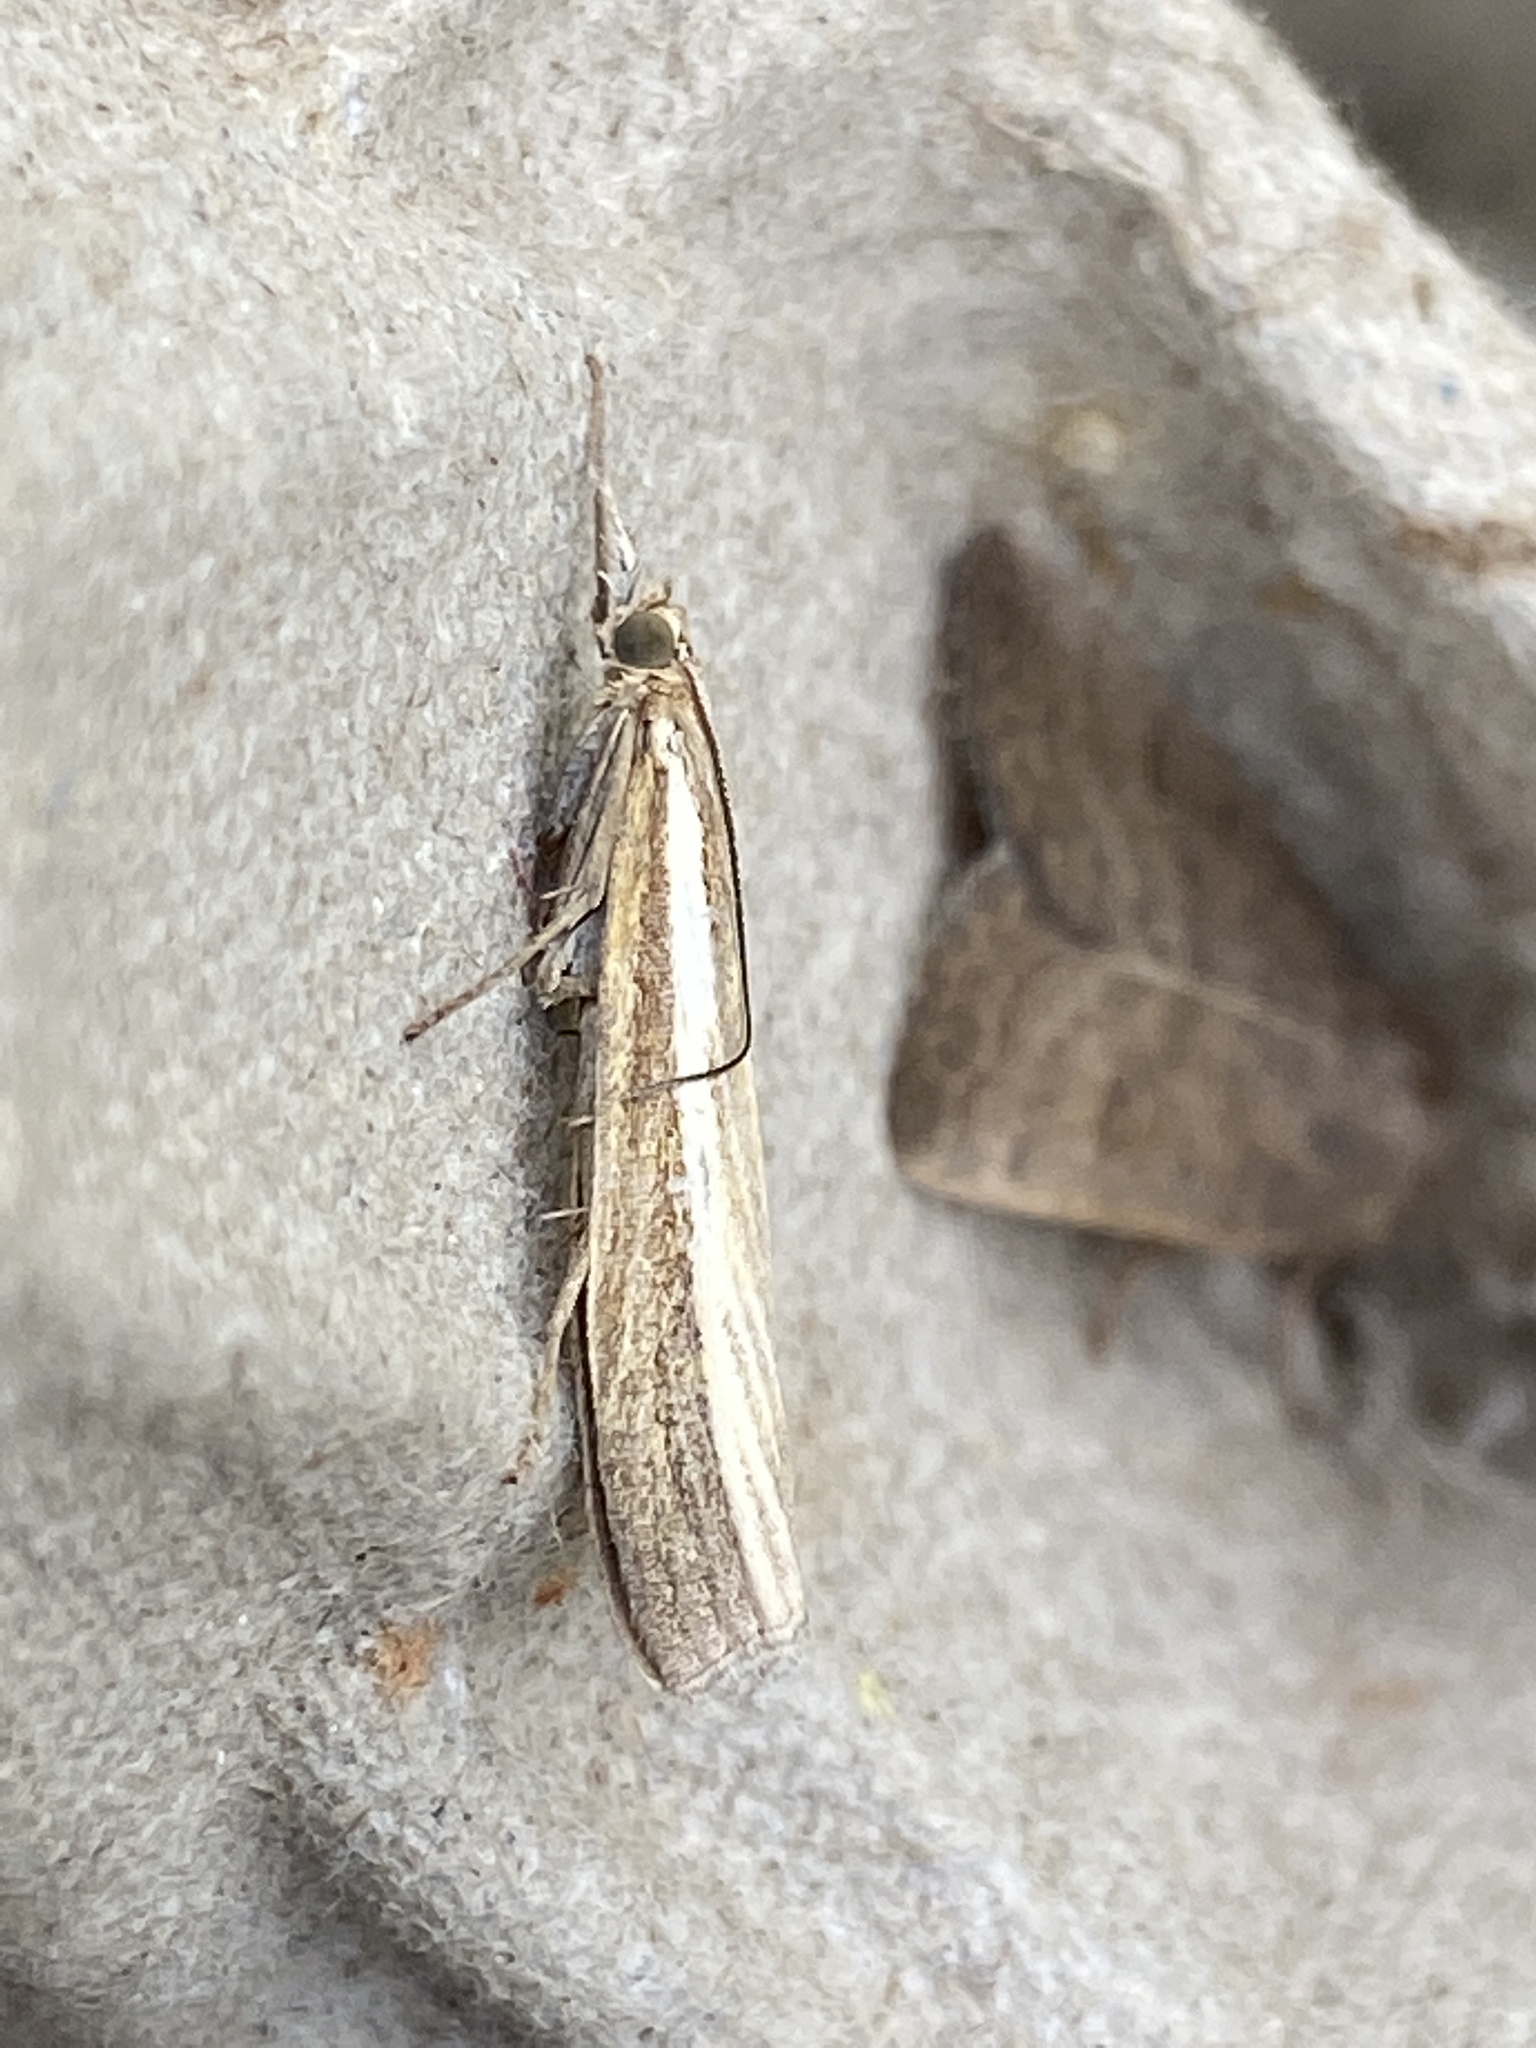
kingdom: Animalia
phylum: Arthropoda
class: Insecta
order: Lepidoptera
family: Crambidae
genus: Agriphila
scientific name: Agriphila tristellus
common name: Common grass-veneer
